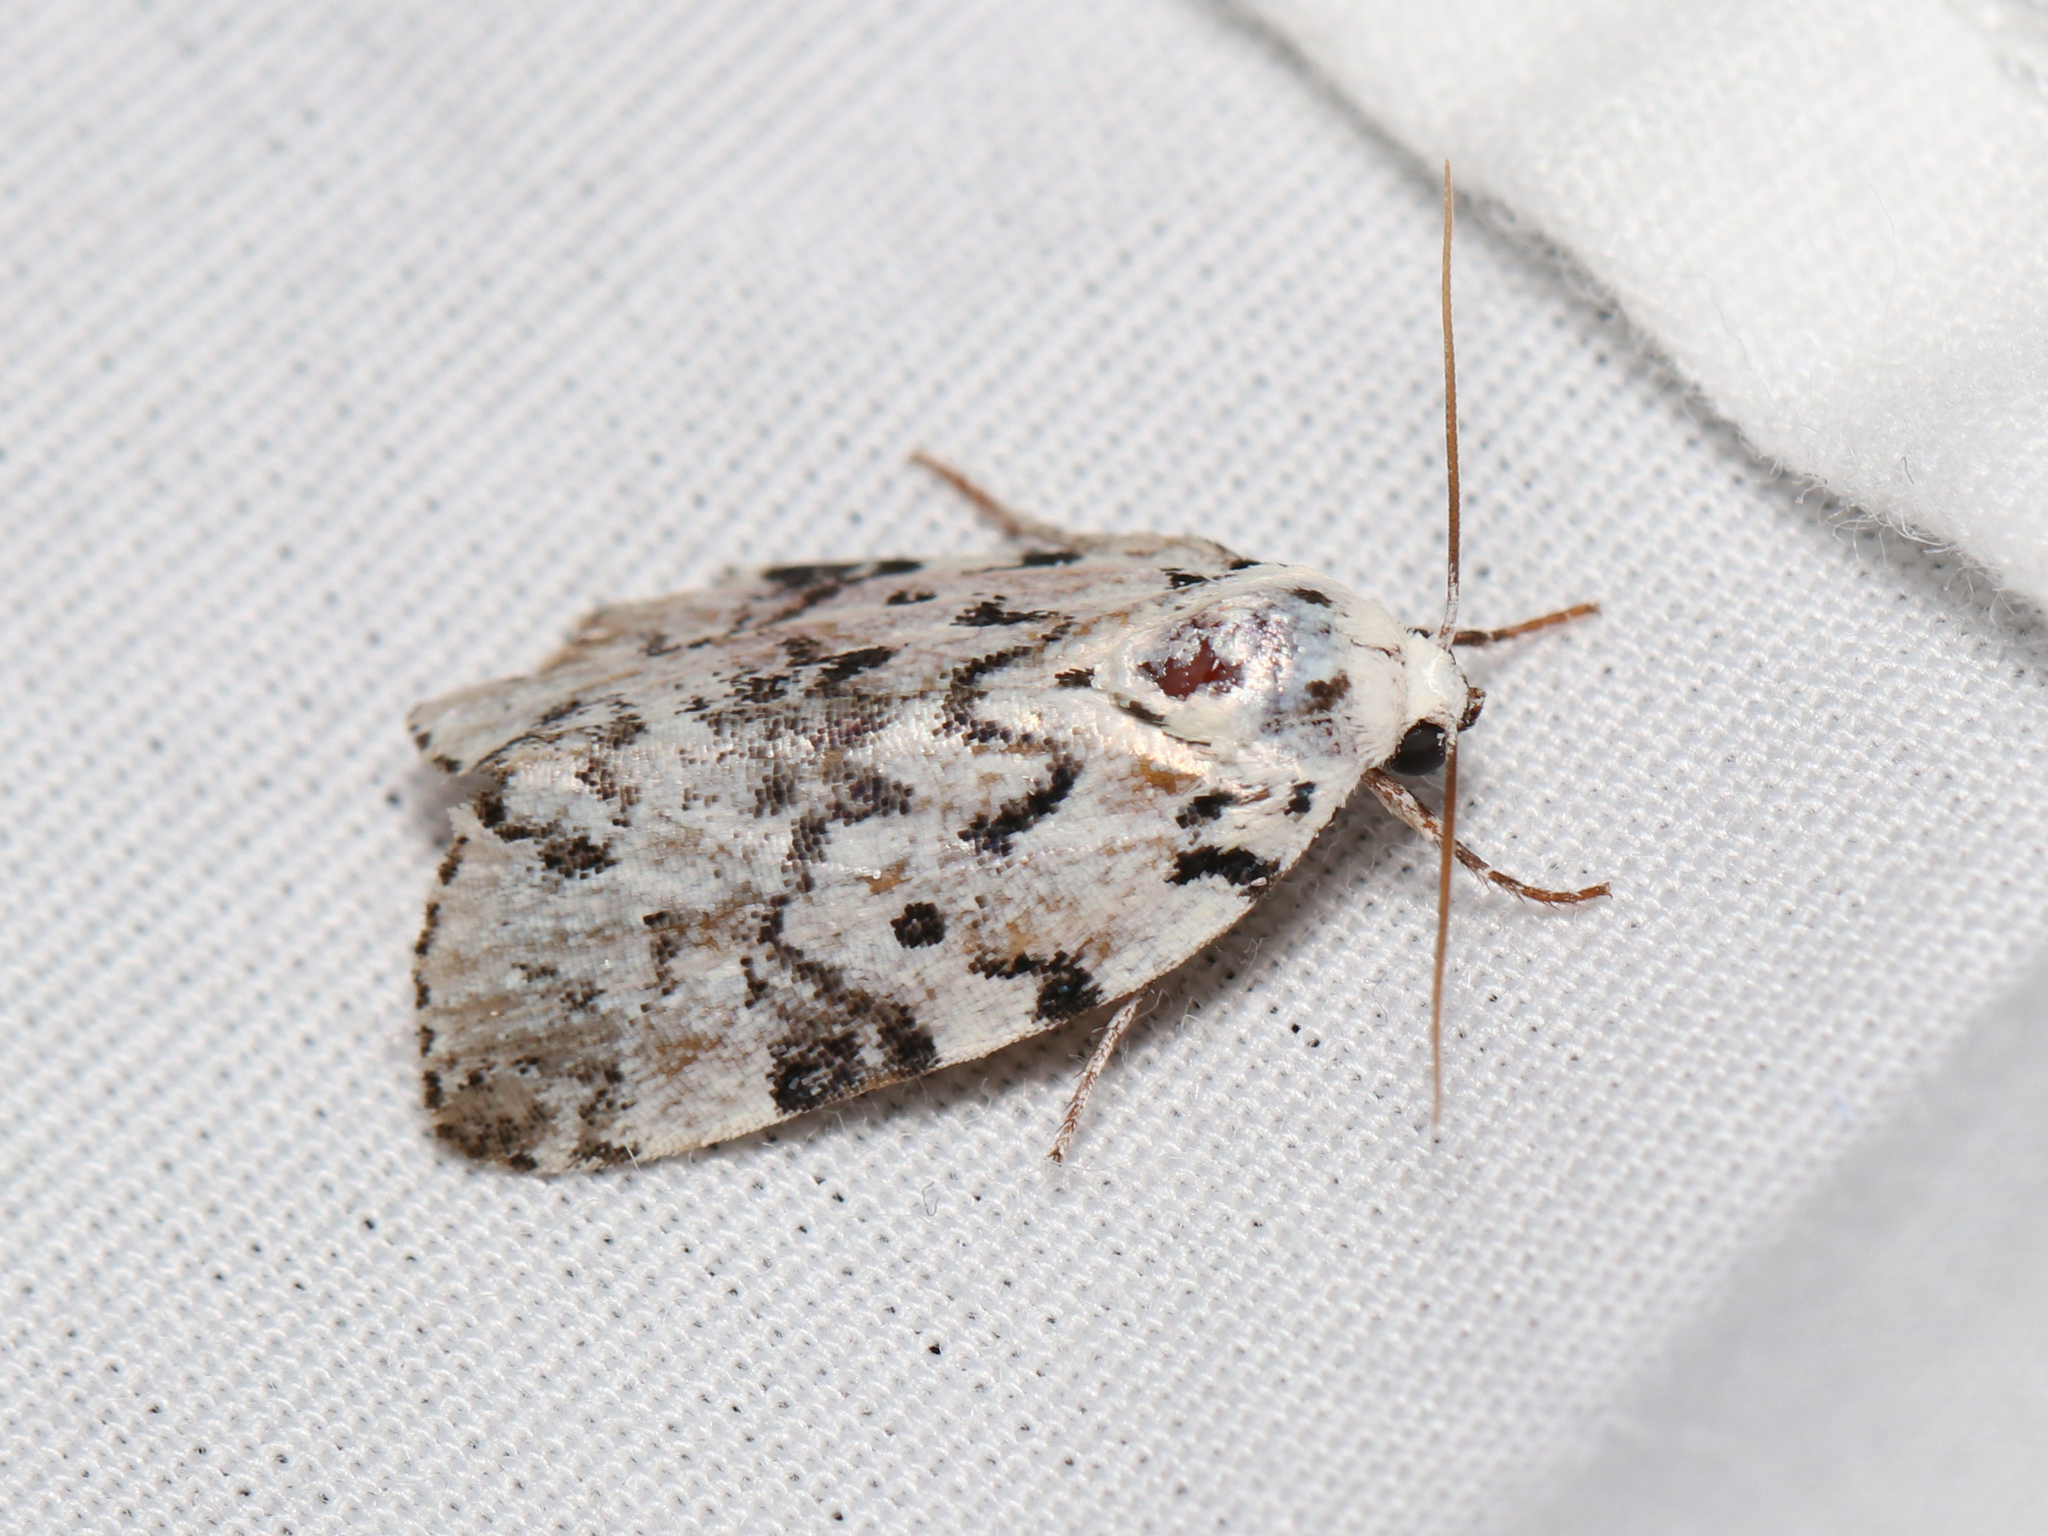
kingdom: Animalia
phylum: Arthropoda
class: Insecta
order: Lepidoptera
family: Noctuidae
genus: Polygrammate
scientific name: Polygrammate hebraeicum
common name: Hebrew moth
